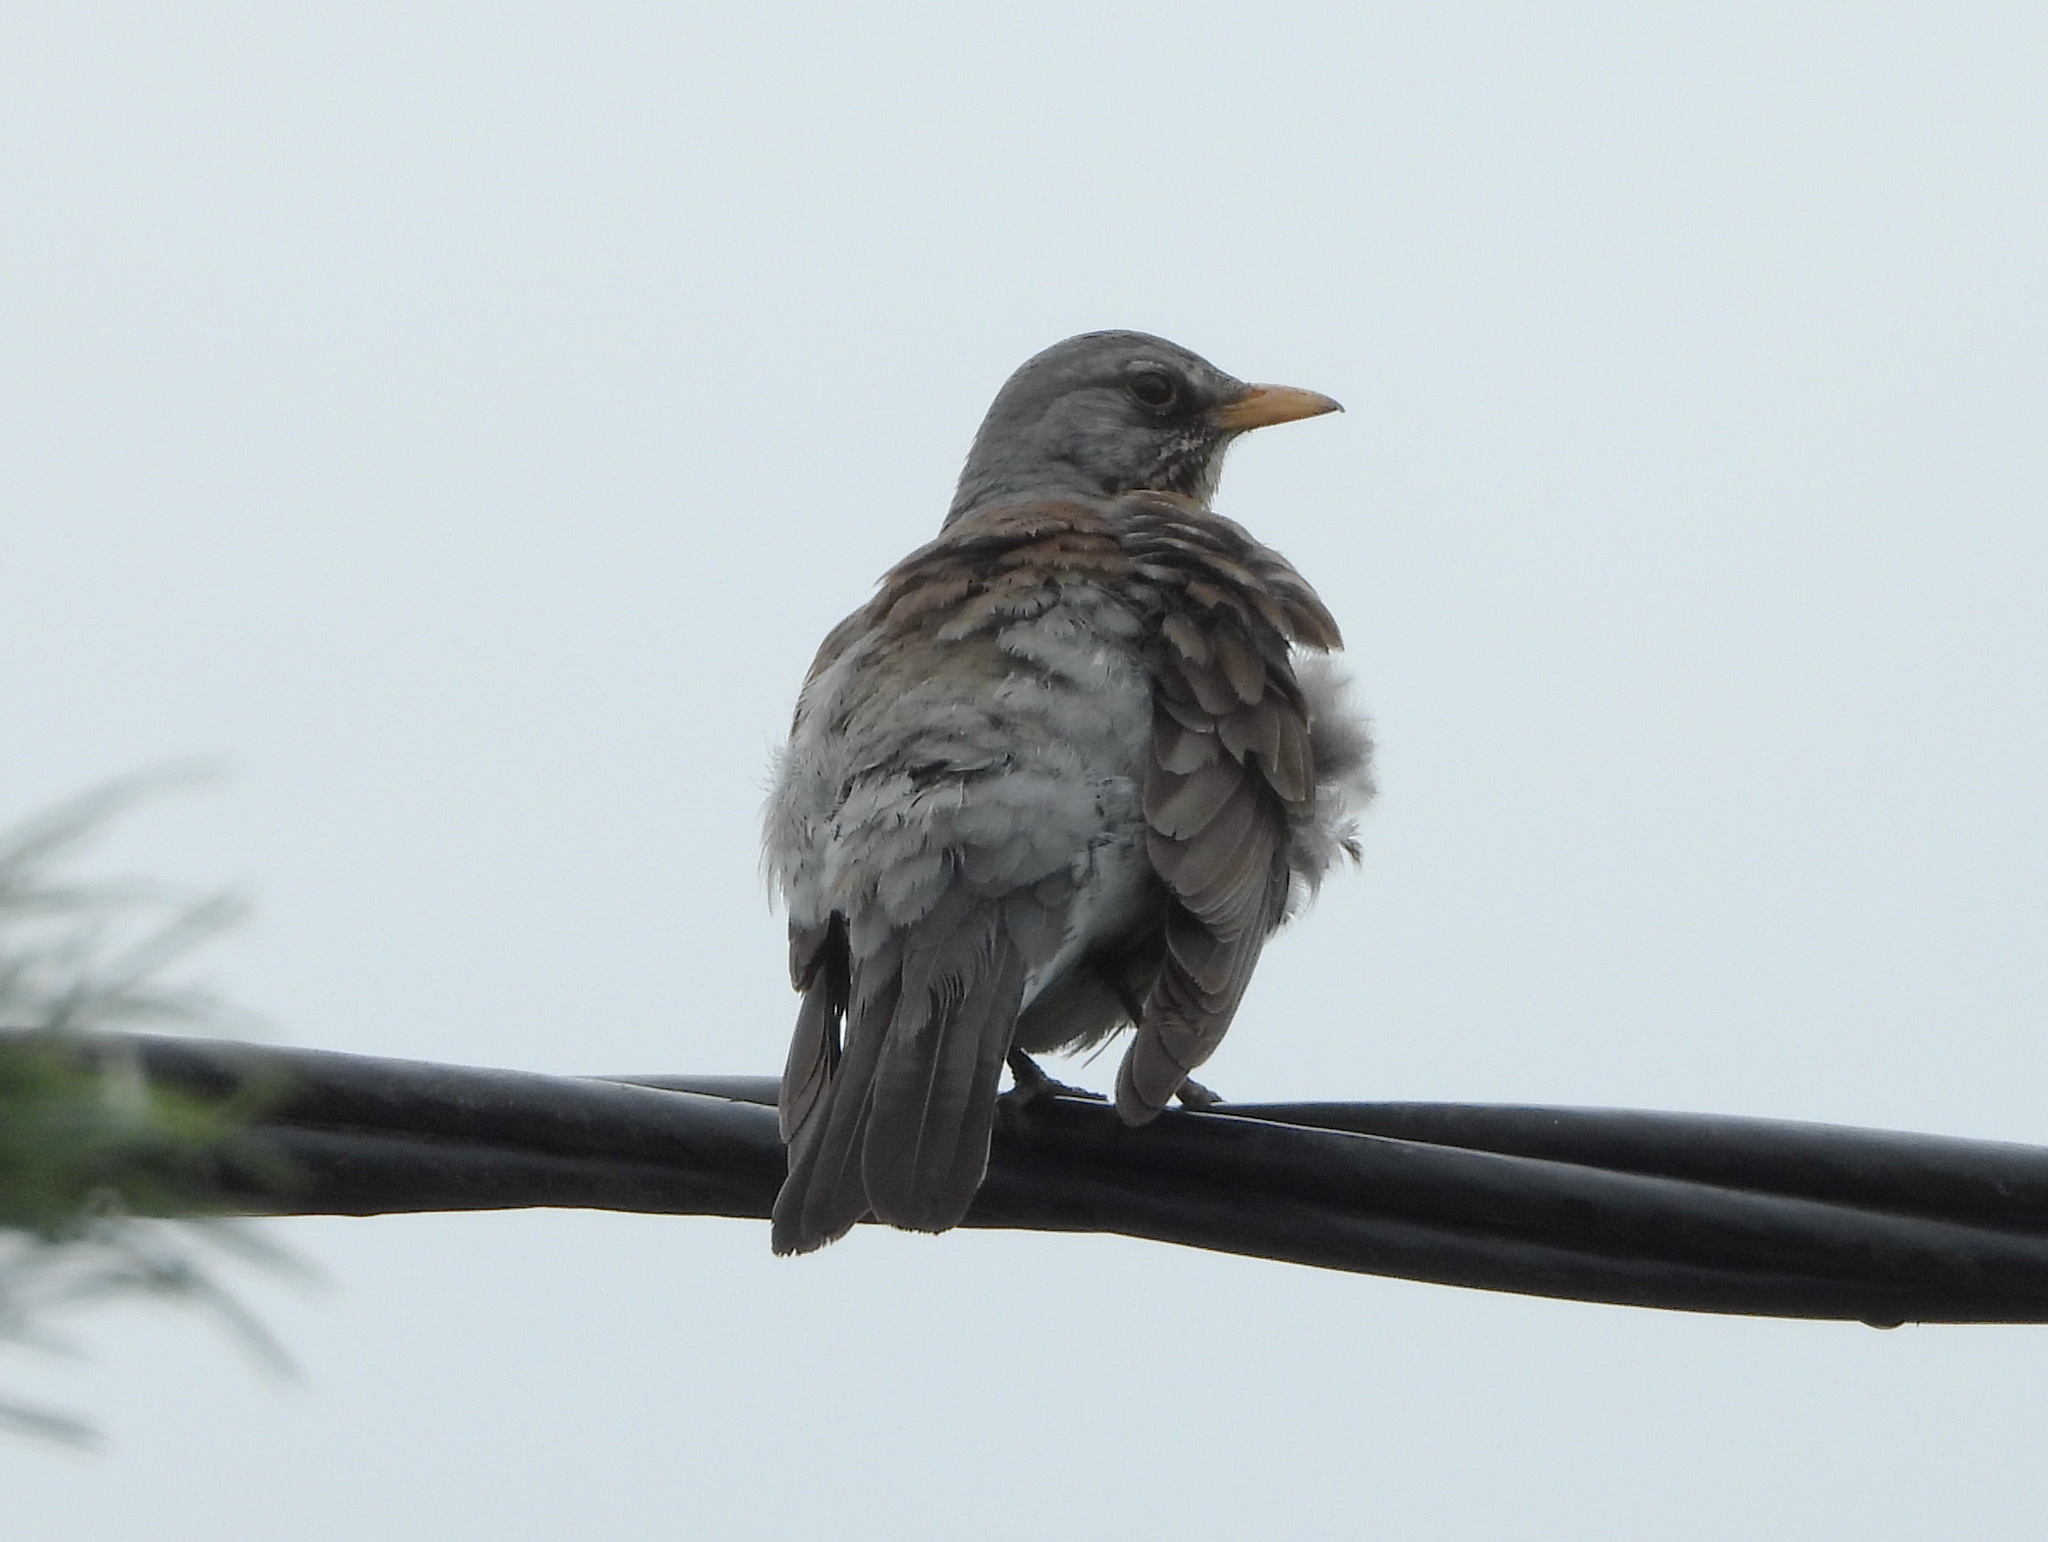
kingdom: Animalia
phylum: Chordata
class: Aves
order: Passeriformes
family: Turdidae
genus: Turdus
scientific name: Turdus pilaris
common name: Fieldfare
